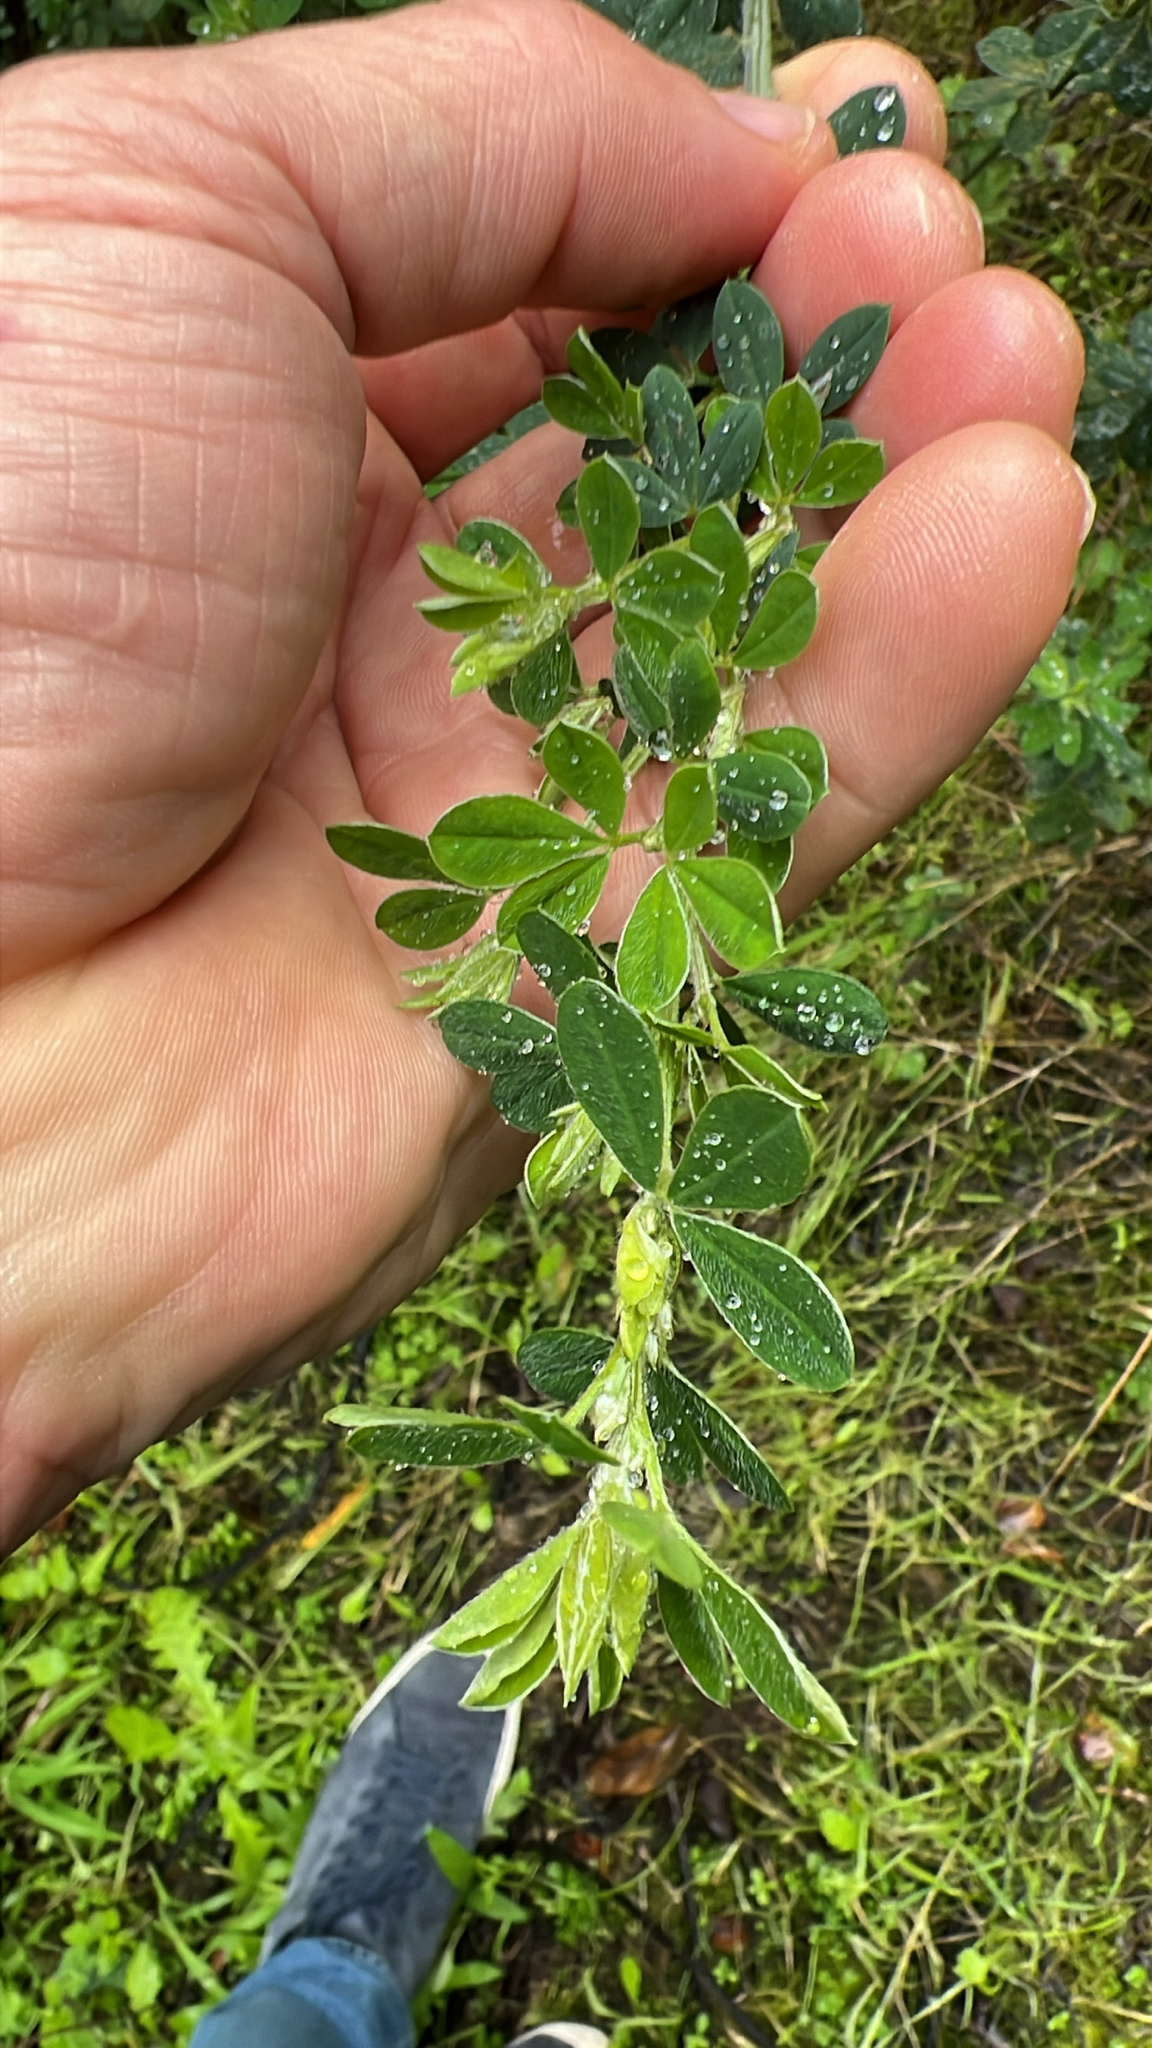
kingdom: Plantae
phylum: Tracheophyta
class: Magnoliopsida
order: Fabales
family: Fabaceae
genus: Genista
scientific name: Genista monspessulana
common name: Montpellier broom
